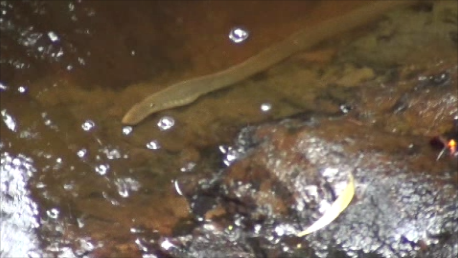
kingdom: Animalia
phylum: Chordata
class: Petromyzonti
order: Petromyzontiformes
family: Geotriidae
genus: Geotria
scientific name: Geotria australis
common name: Pouched lamprey
